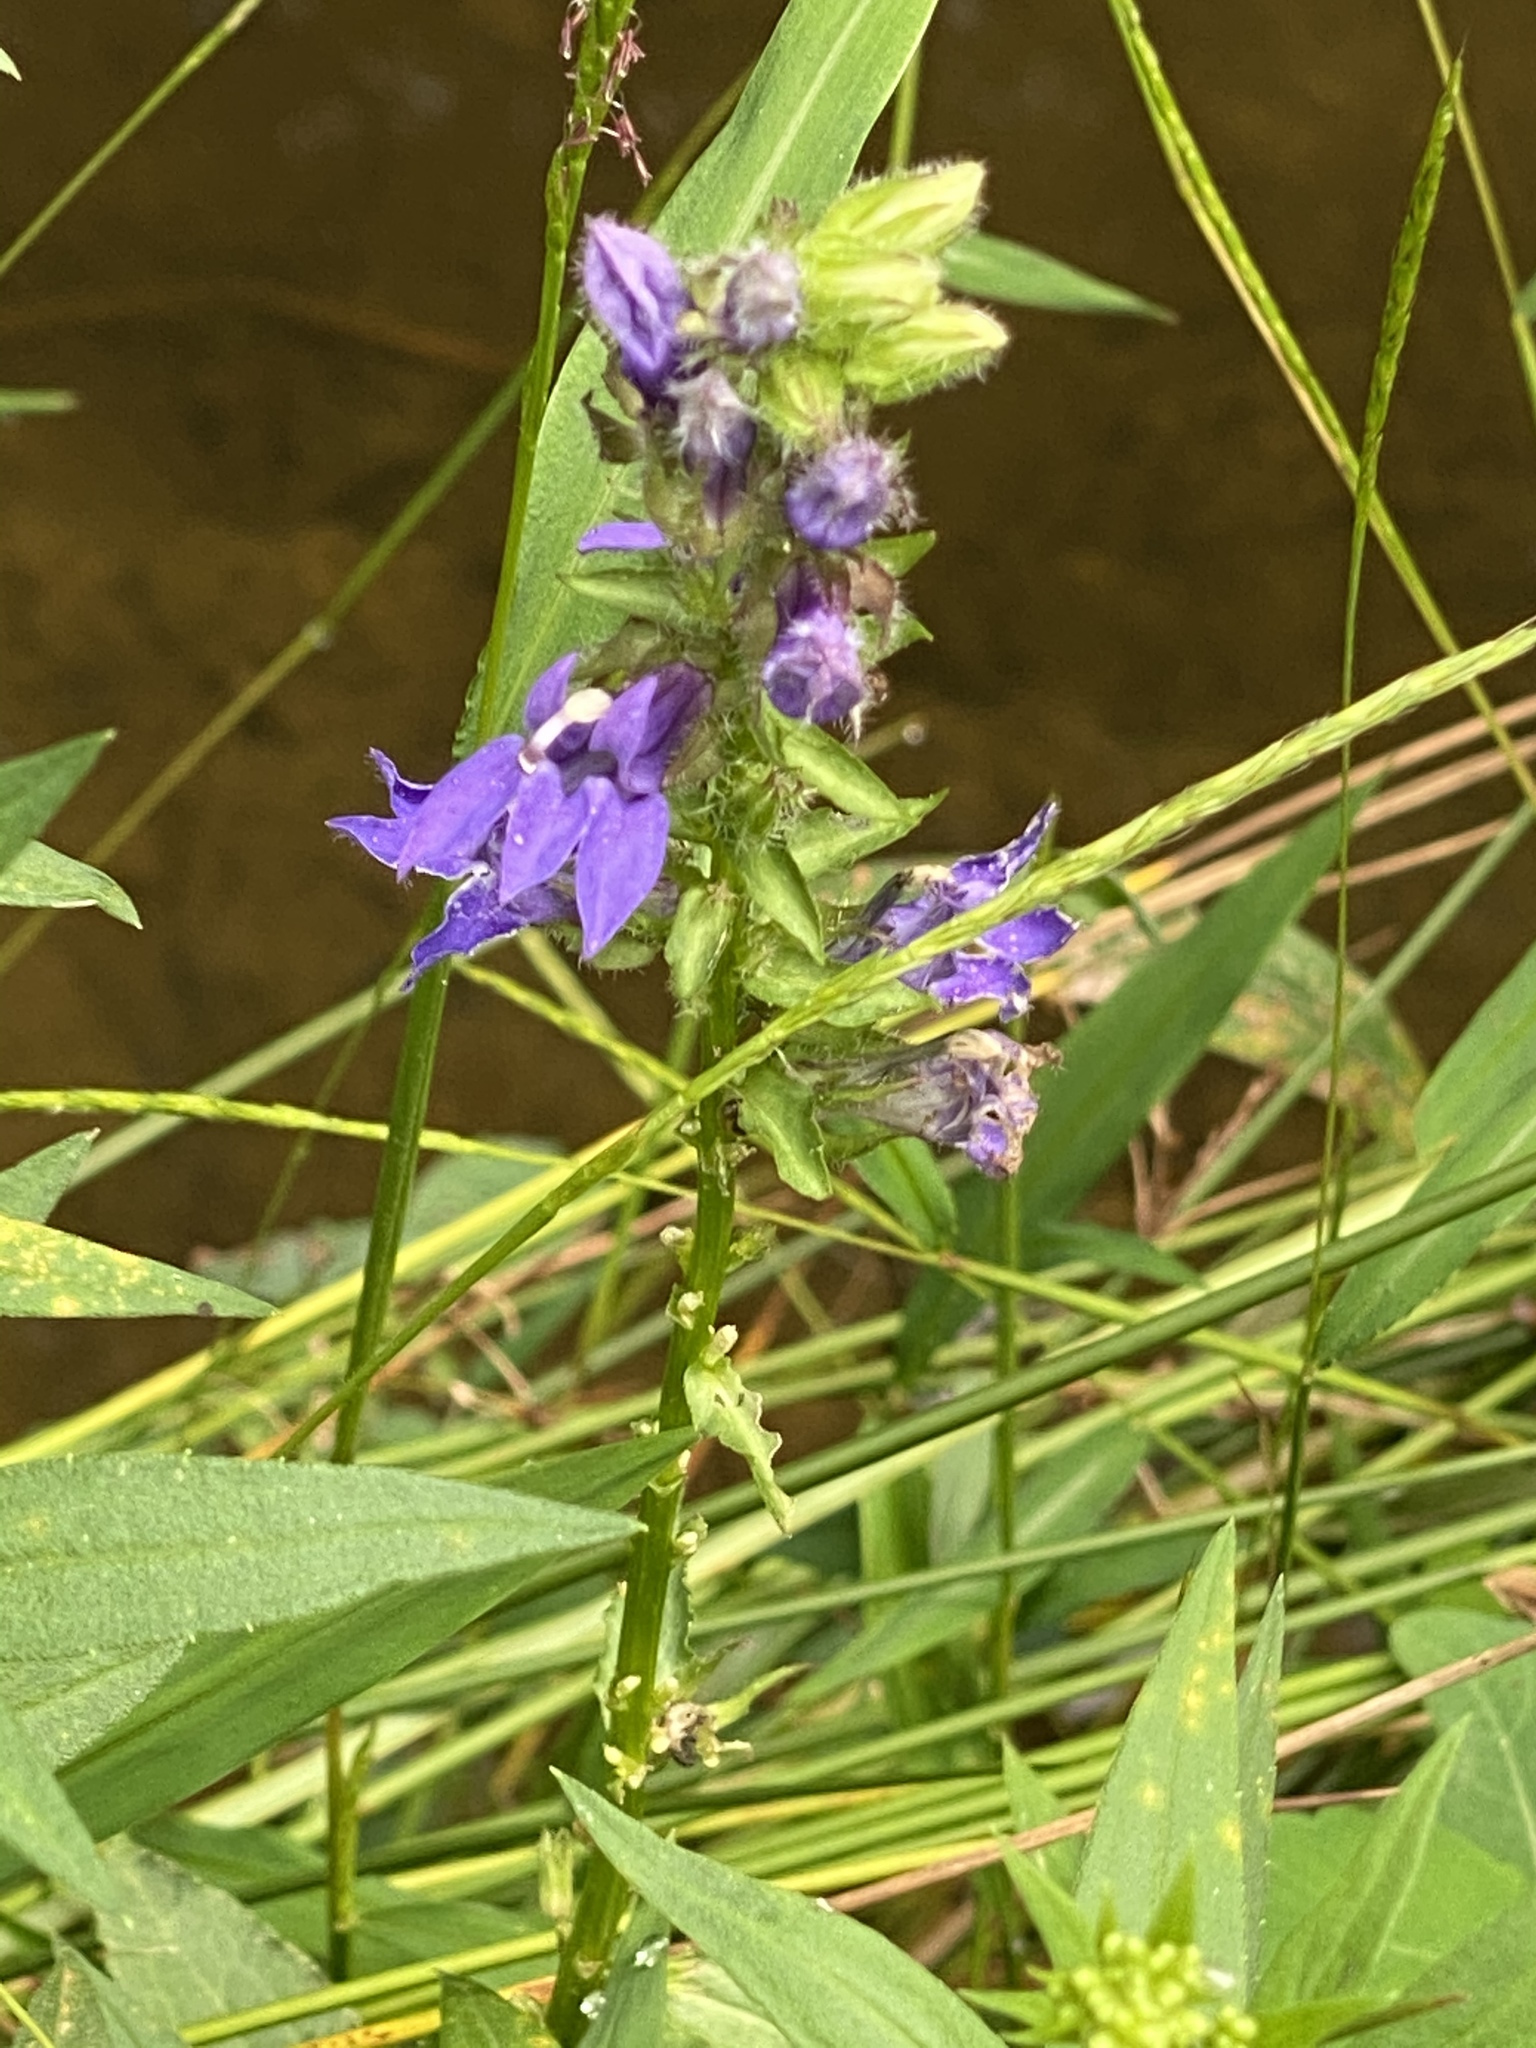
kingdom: Plantae
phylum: Tracheophyta
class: Magnoliopsida
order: Asterales
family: Campanulaceae
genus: Lobelia
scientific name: Lobelia siphilitica
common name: Great lobelia
